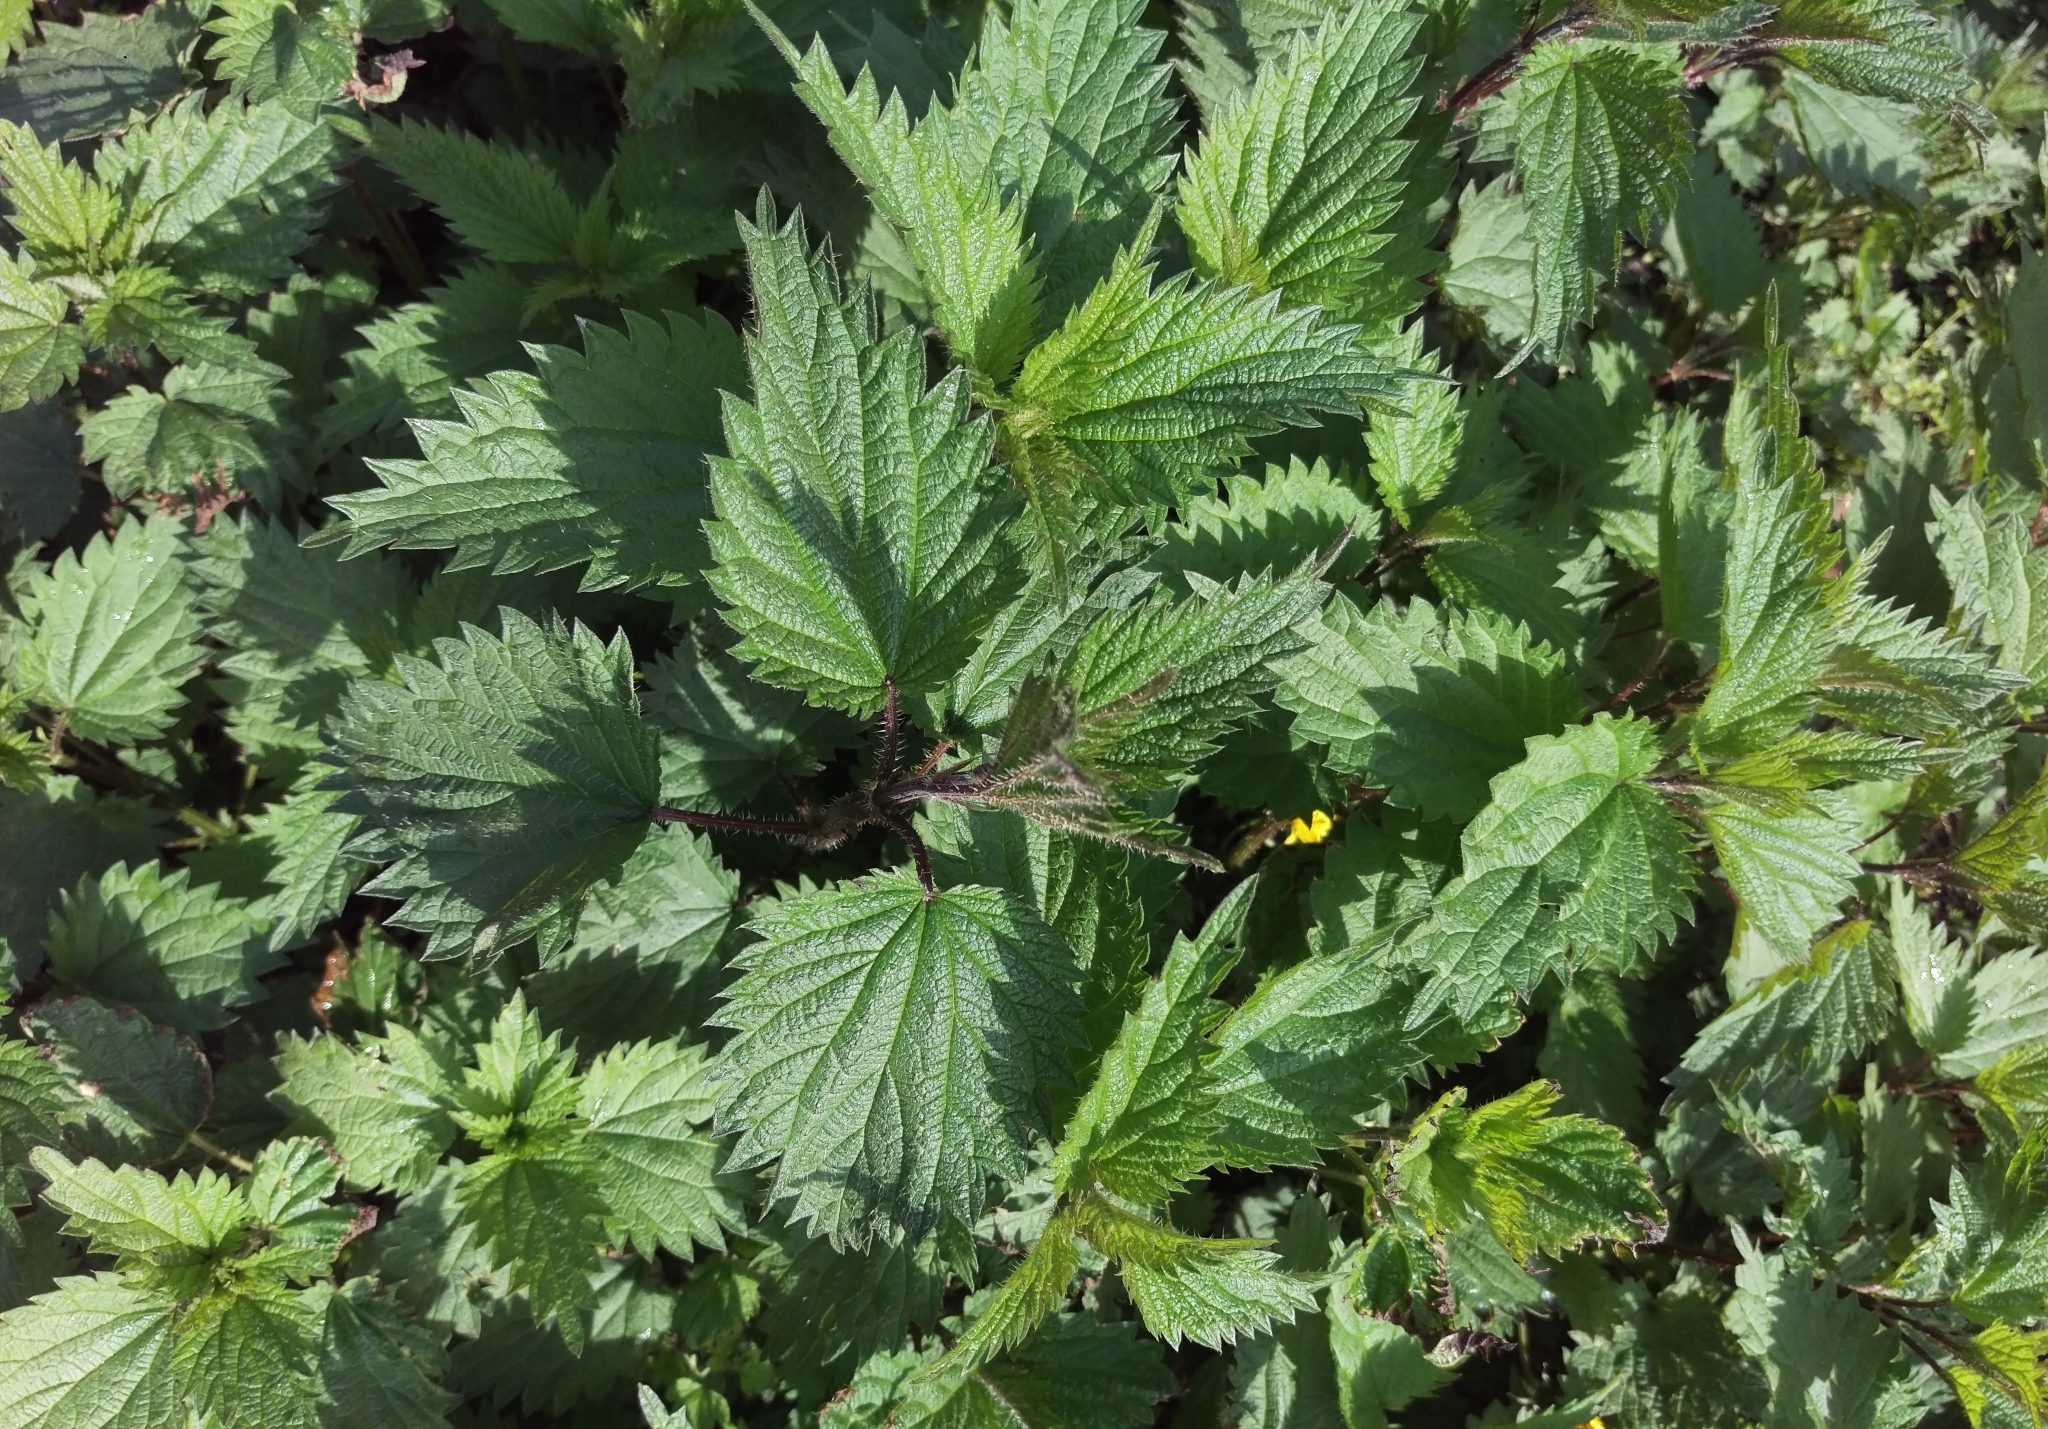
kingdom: Plantae
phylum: Tracheophyta
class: Magnoliopsida
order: Rosales
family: Urticaceae
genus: Urtica
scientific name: Urtica dioica
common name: Common nettle
